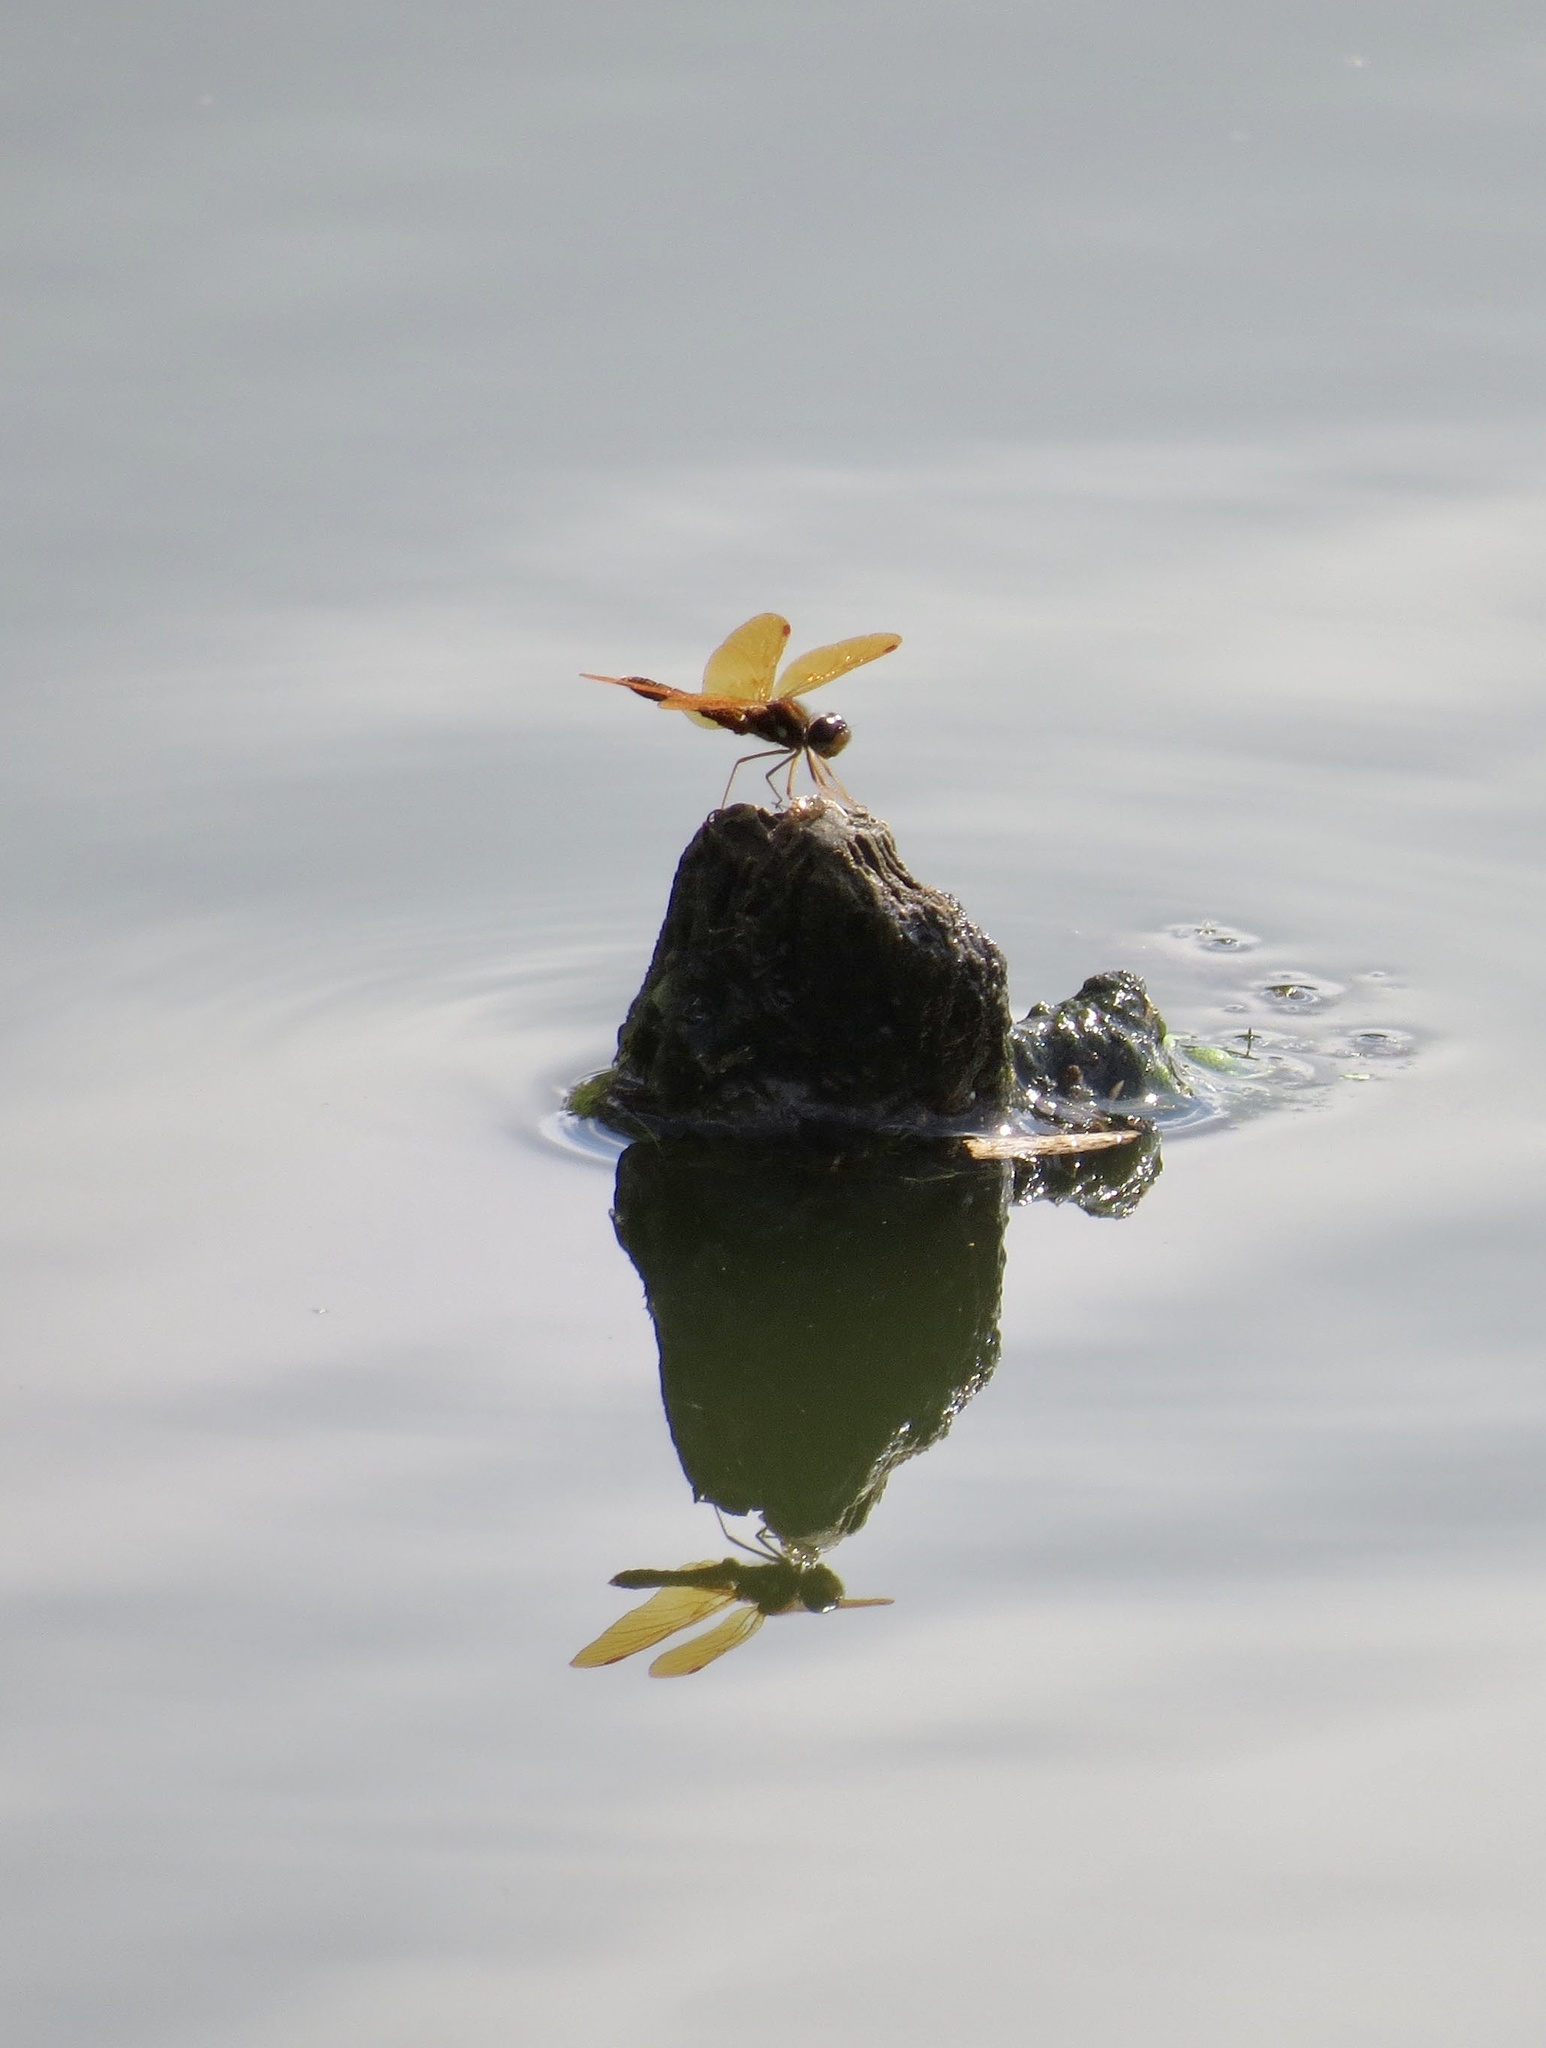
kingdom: Animalia
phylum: Arthropoda
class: Insecta
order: Odonata
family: Libellulidae
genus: Perithemis
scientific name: Perithemis tenera
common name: Eastern amberwing
